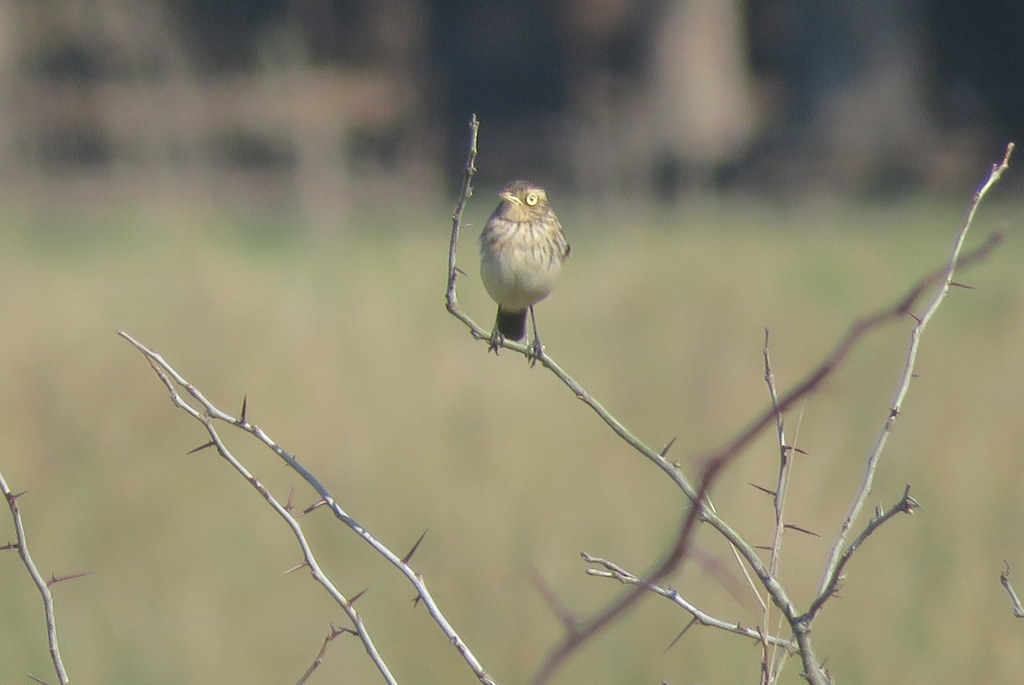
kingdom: Animalia
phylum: Chordata
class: Aves
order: Passeriformes
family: Tyrannidae
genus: Hymenops
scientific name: Hymenops perspicillatus
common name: Spectacled tyrant
